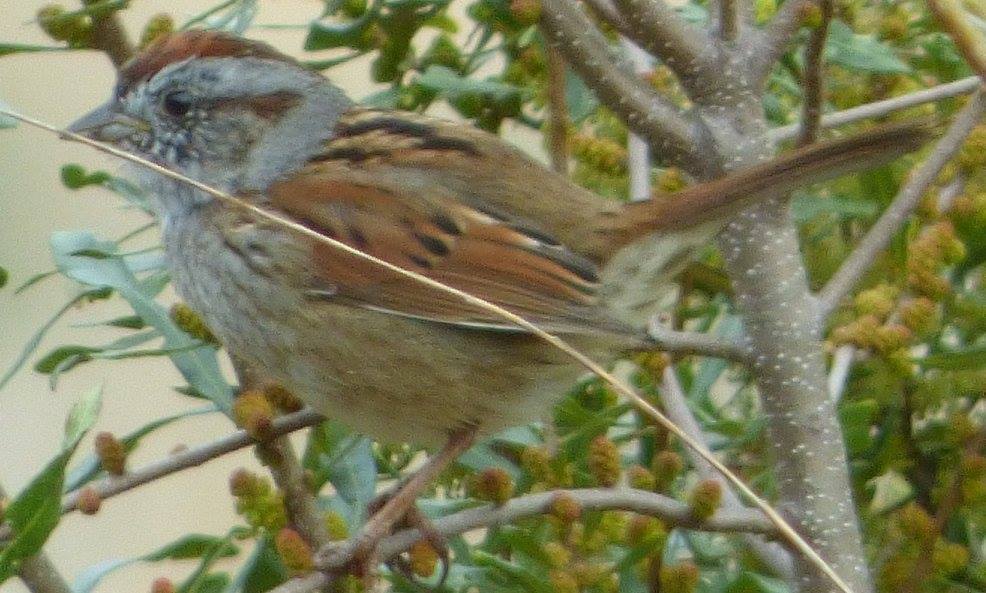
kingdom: Animalia
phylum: Chordata
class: Aves
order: Passeriformes
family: Passerellidae
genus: Melospiza
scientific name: Melospiza georgiana
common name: Swamp sparrow
